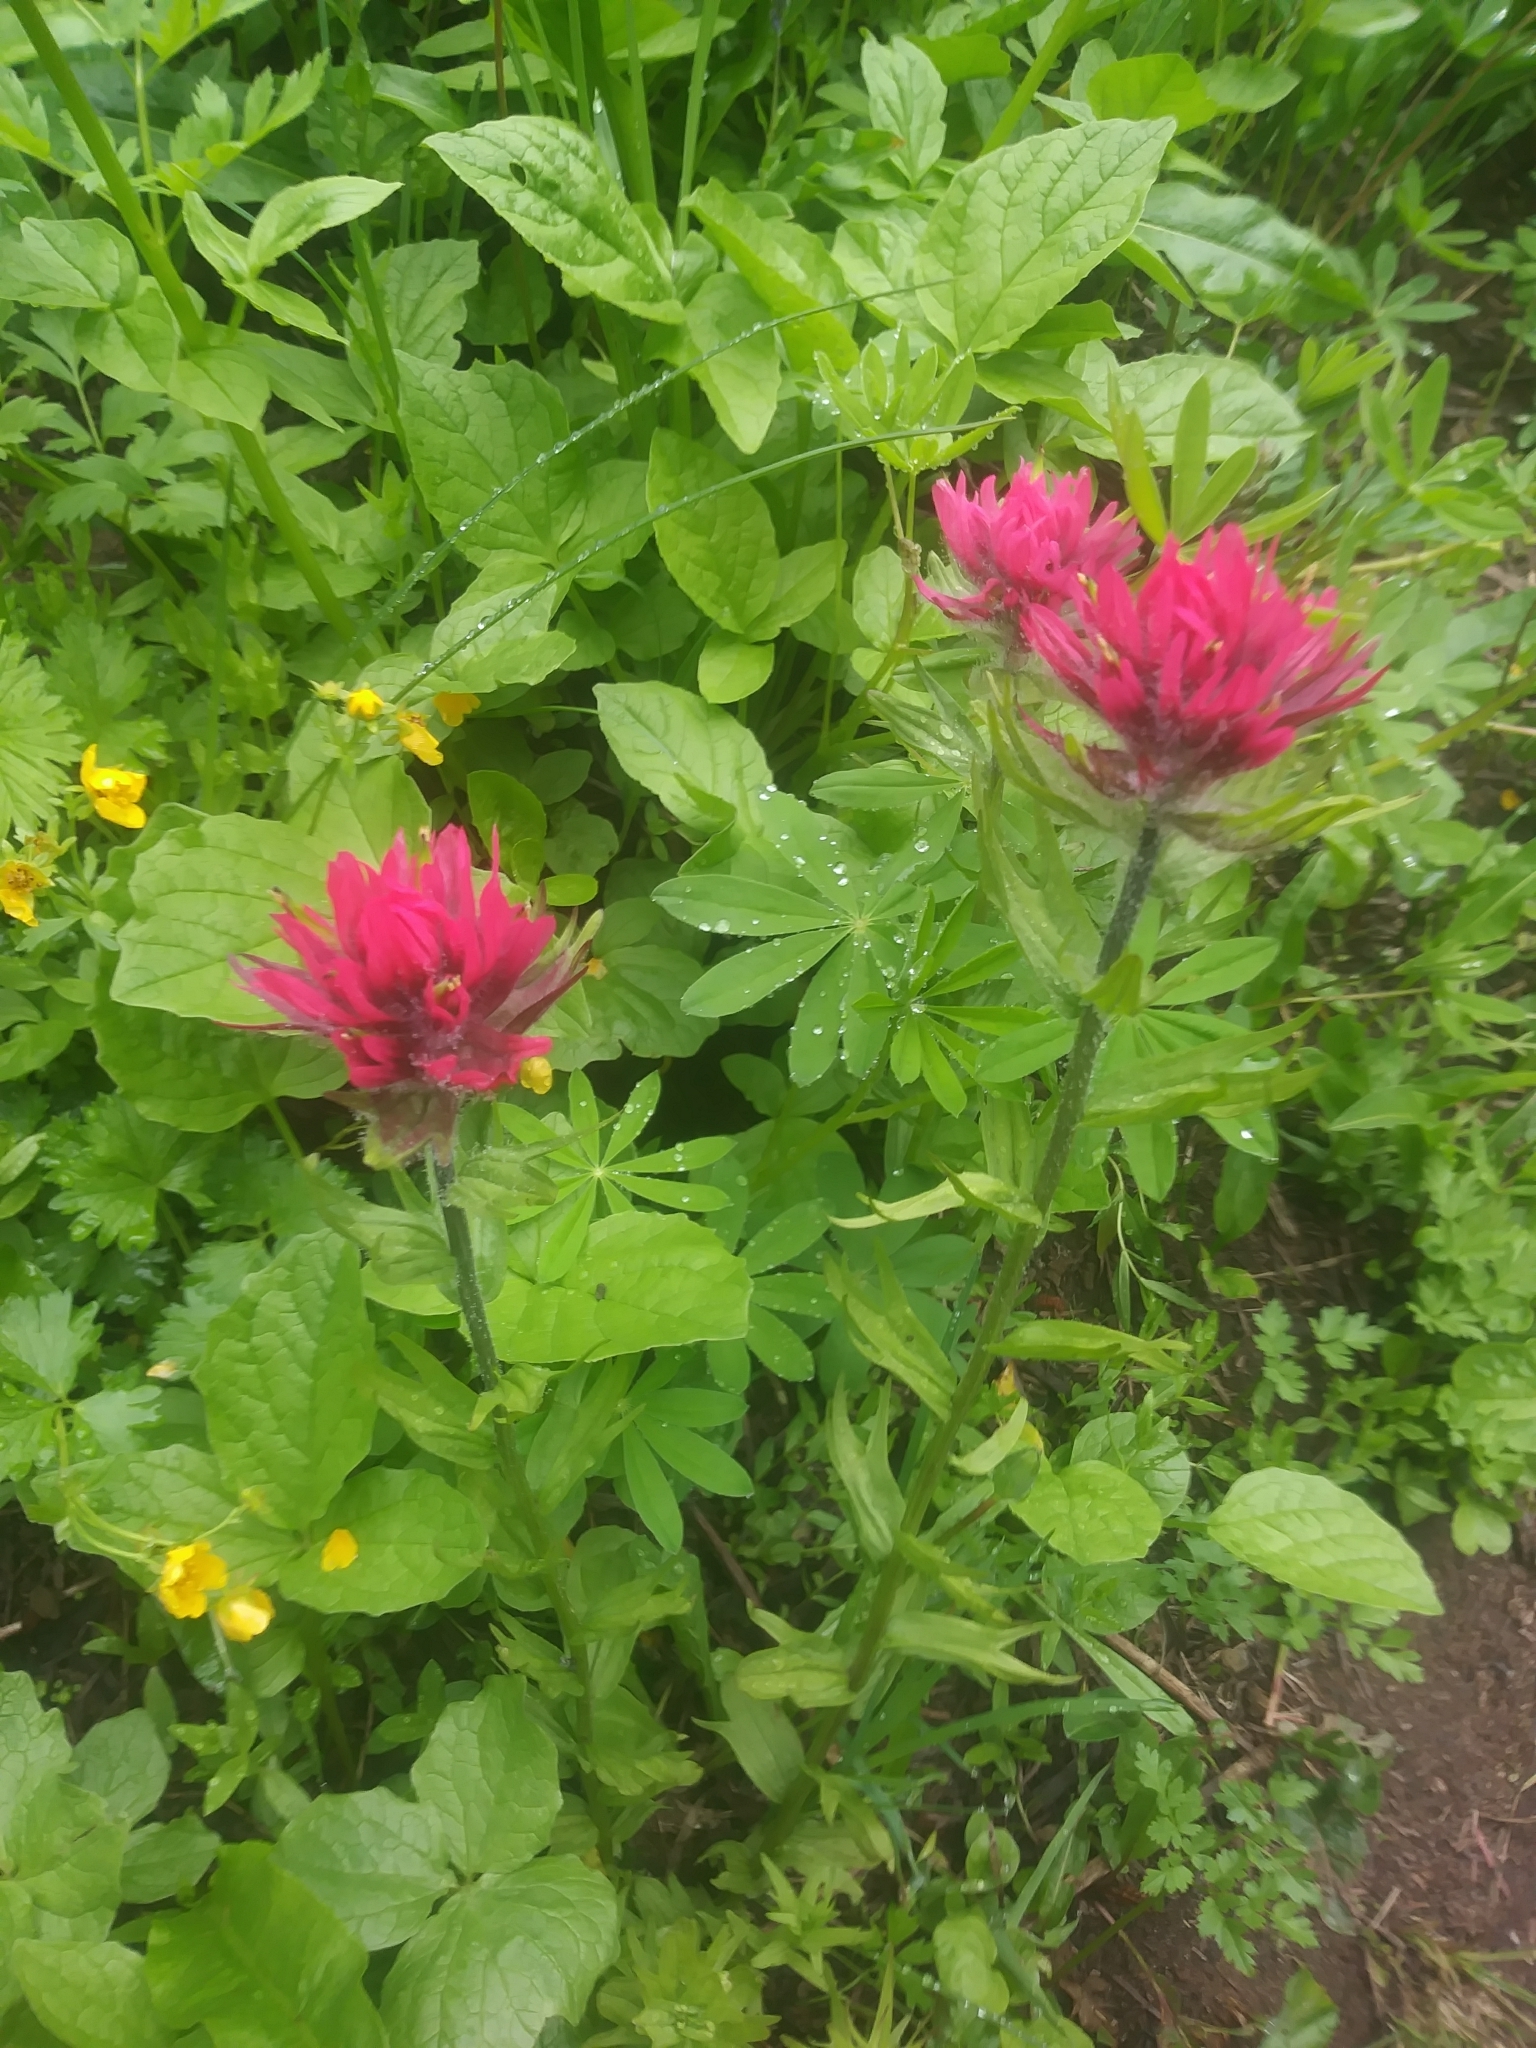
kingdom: Plantae
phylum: Tracheophyta
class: Magnoliopsida
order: Lamiales
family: Orobanchaceae
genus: Castilleja
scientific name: Castilleja parviflora
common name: Mountain paintbrush
